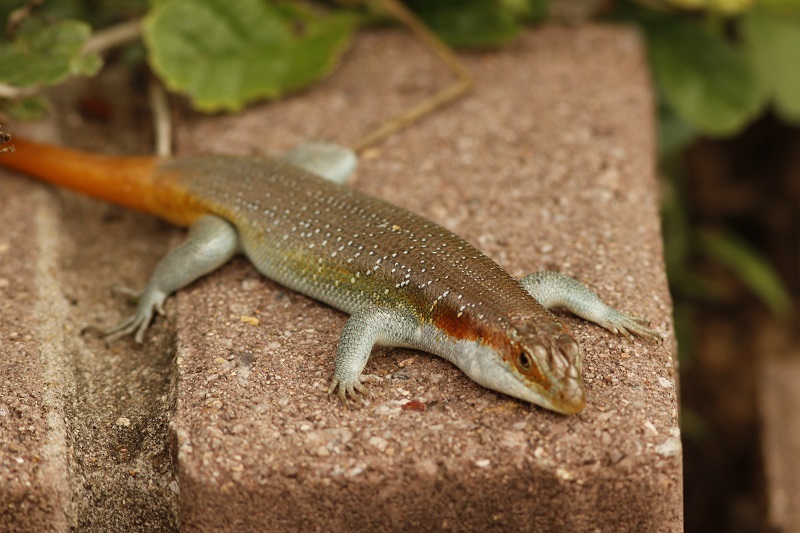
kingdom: Animalia
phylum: Chordata
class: Squamata
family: Scincidae
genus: Trachylepis
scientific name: Trachylepis margaritifera
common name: Rainbow skink
